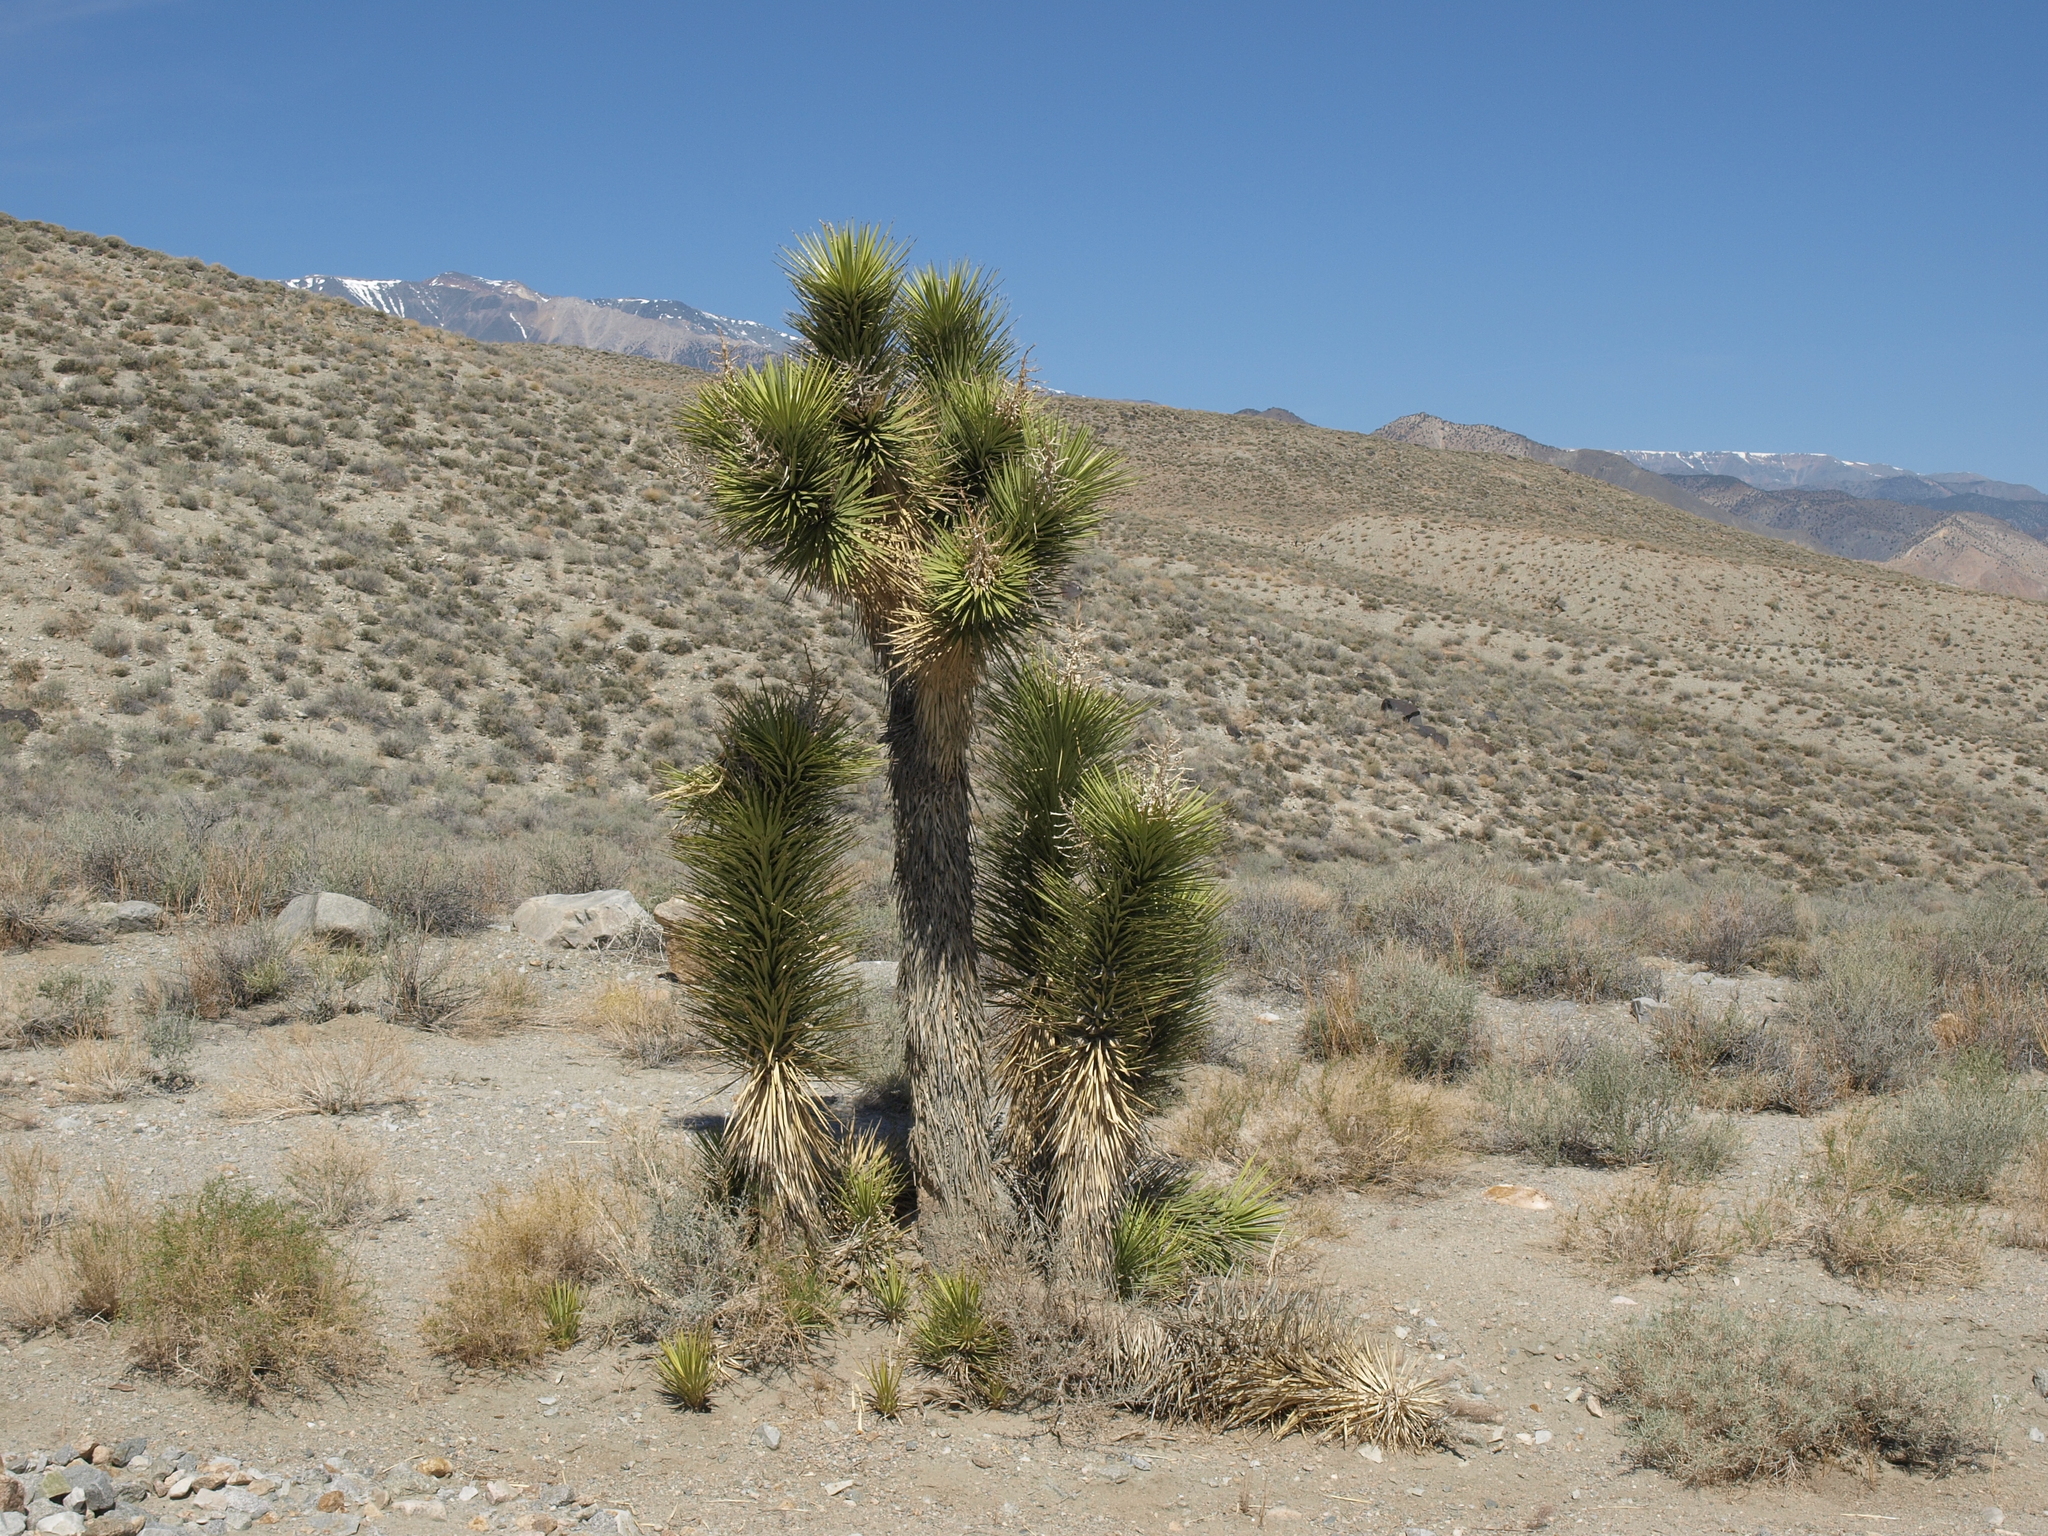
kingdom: Plantae
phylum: Tracheophyta
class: Liliopsida
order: Asparagales
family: Asparagaceae
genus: Yucca
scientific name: Yucca brevifolia
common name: Joshua tree
